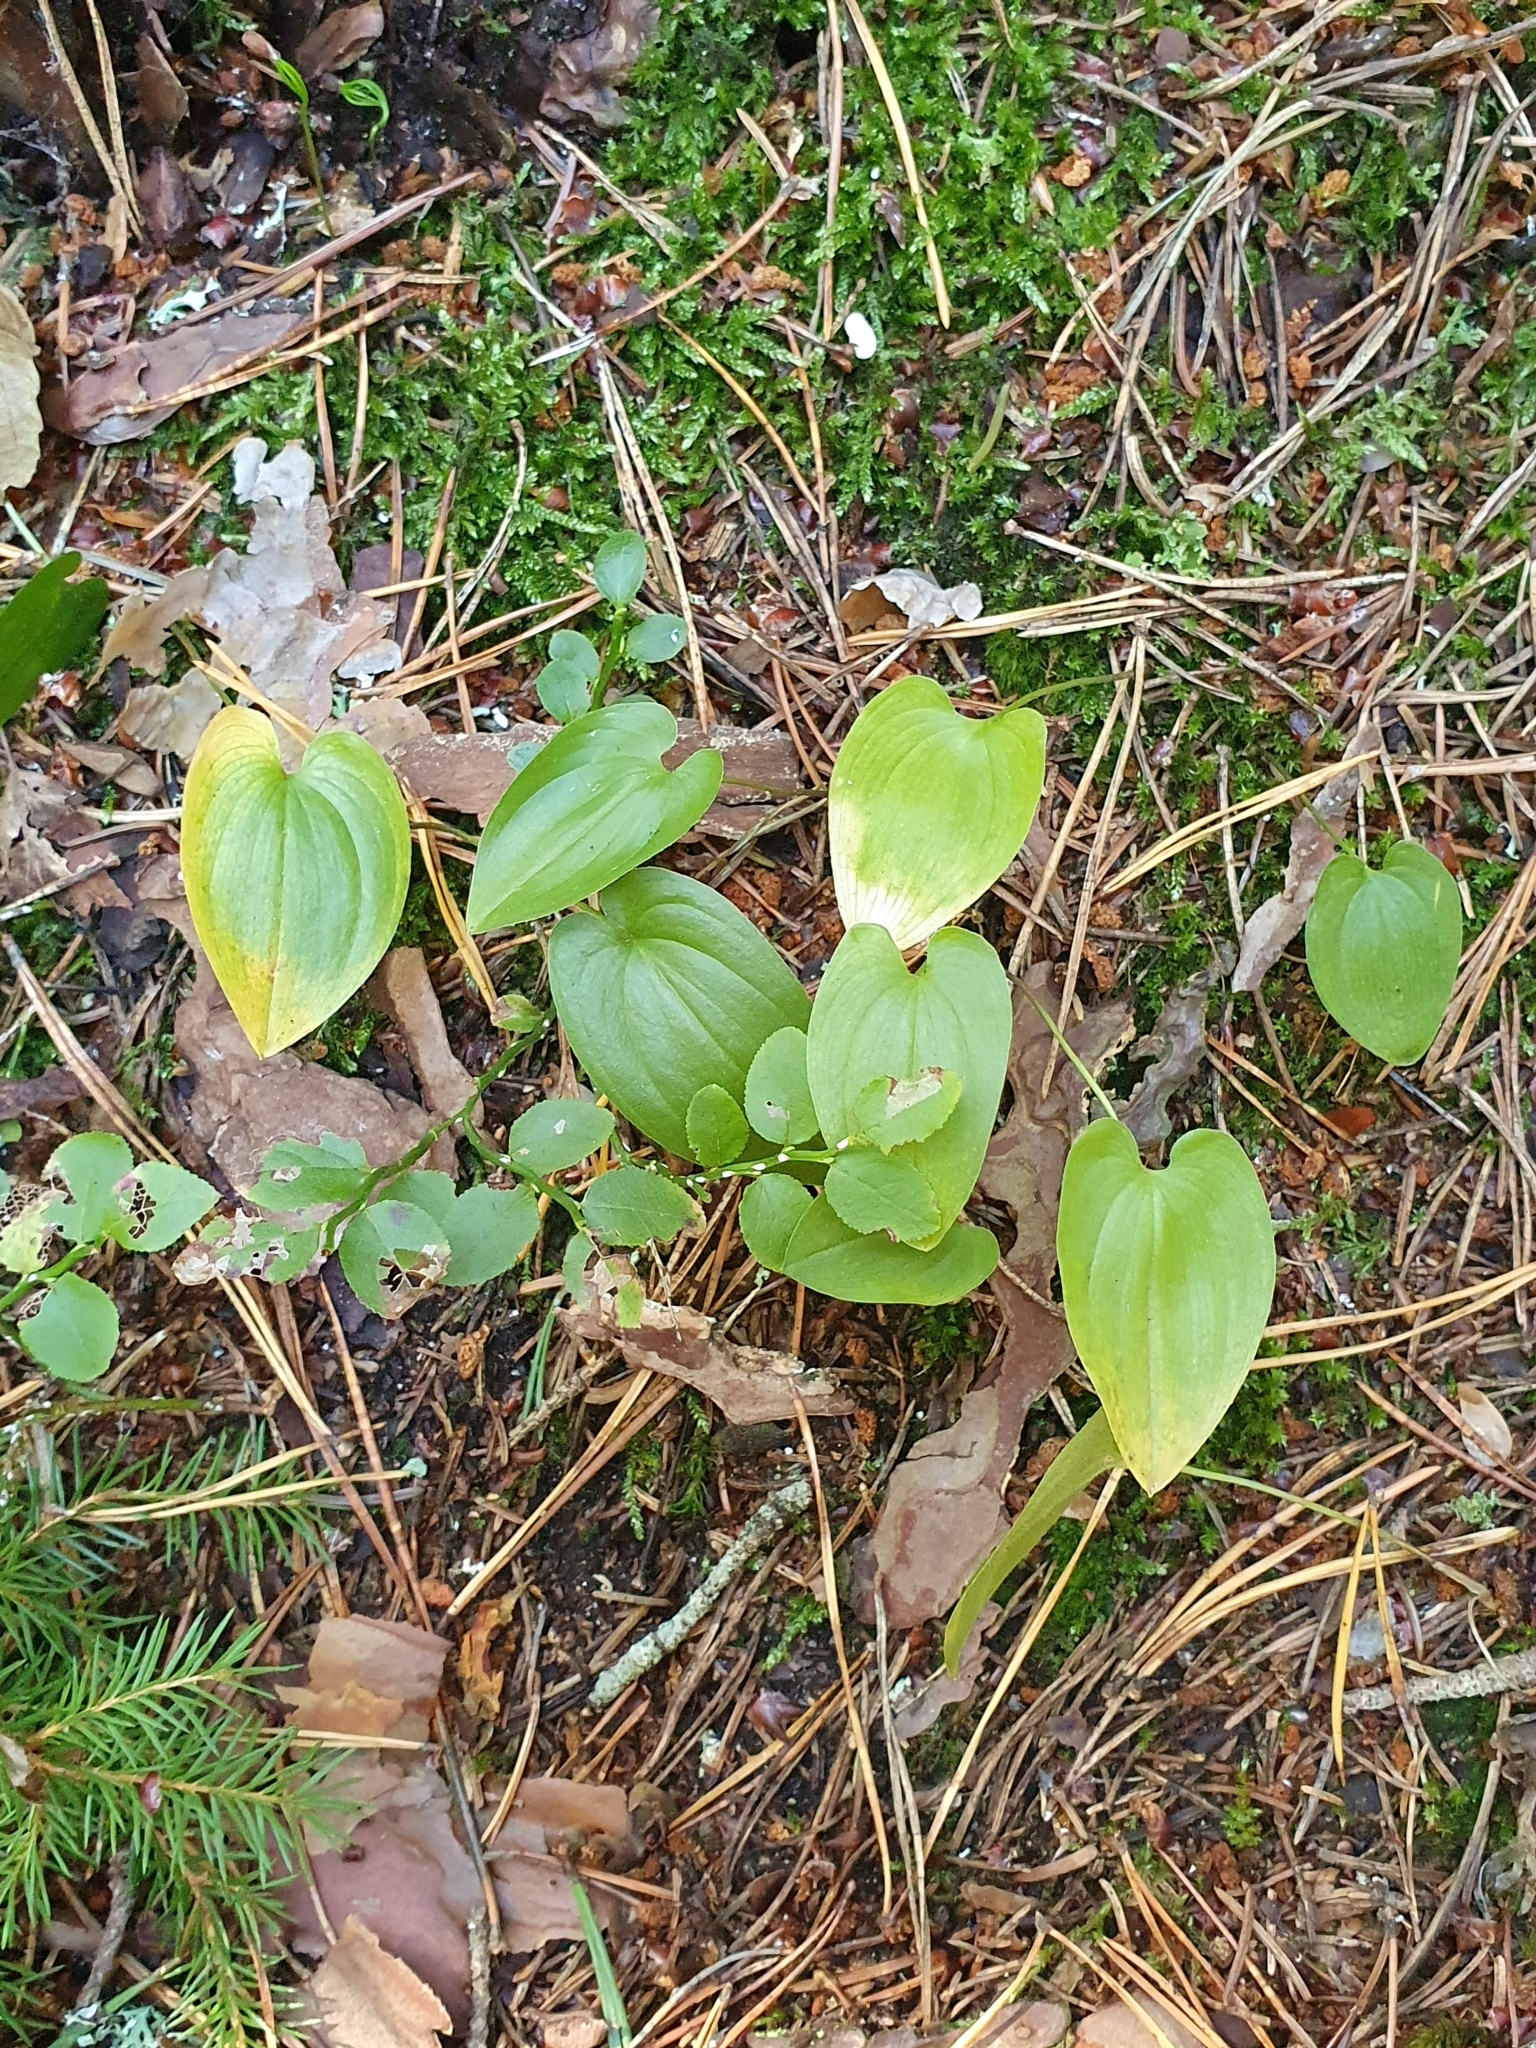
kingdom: Plantae
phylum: Tracheophyta
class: Liliopsida
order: Asparagales
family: Asparagaceae
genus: Maianthemum
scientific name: Maianthemum bifolium
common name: May lily
